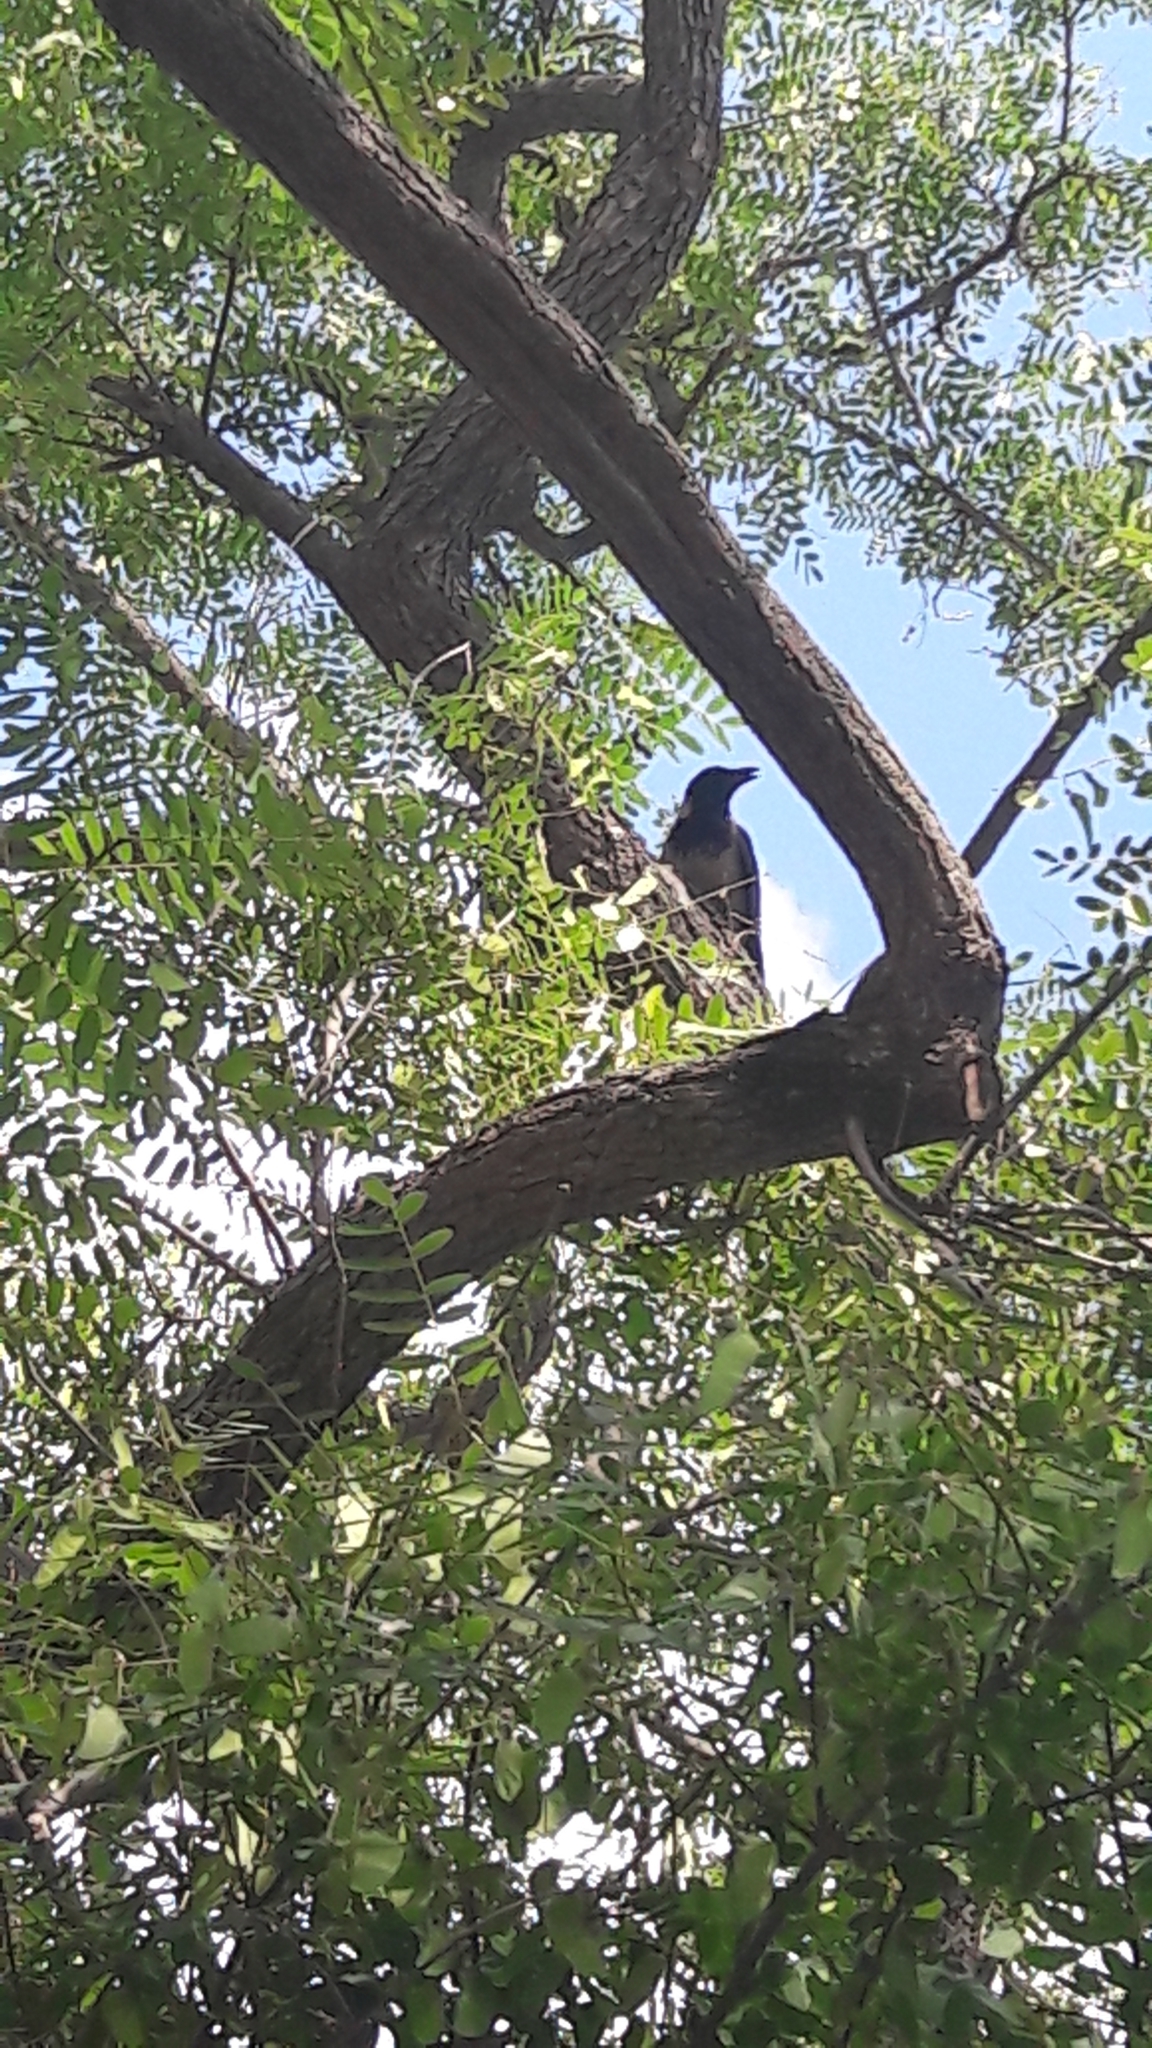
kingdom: Animalia
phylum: Chordata
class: Aves
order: Passeriformes
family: Corvidae
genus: Corvus
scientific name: Corvus cornix
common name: Hooded crow
